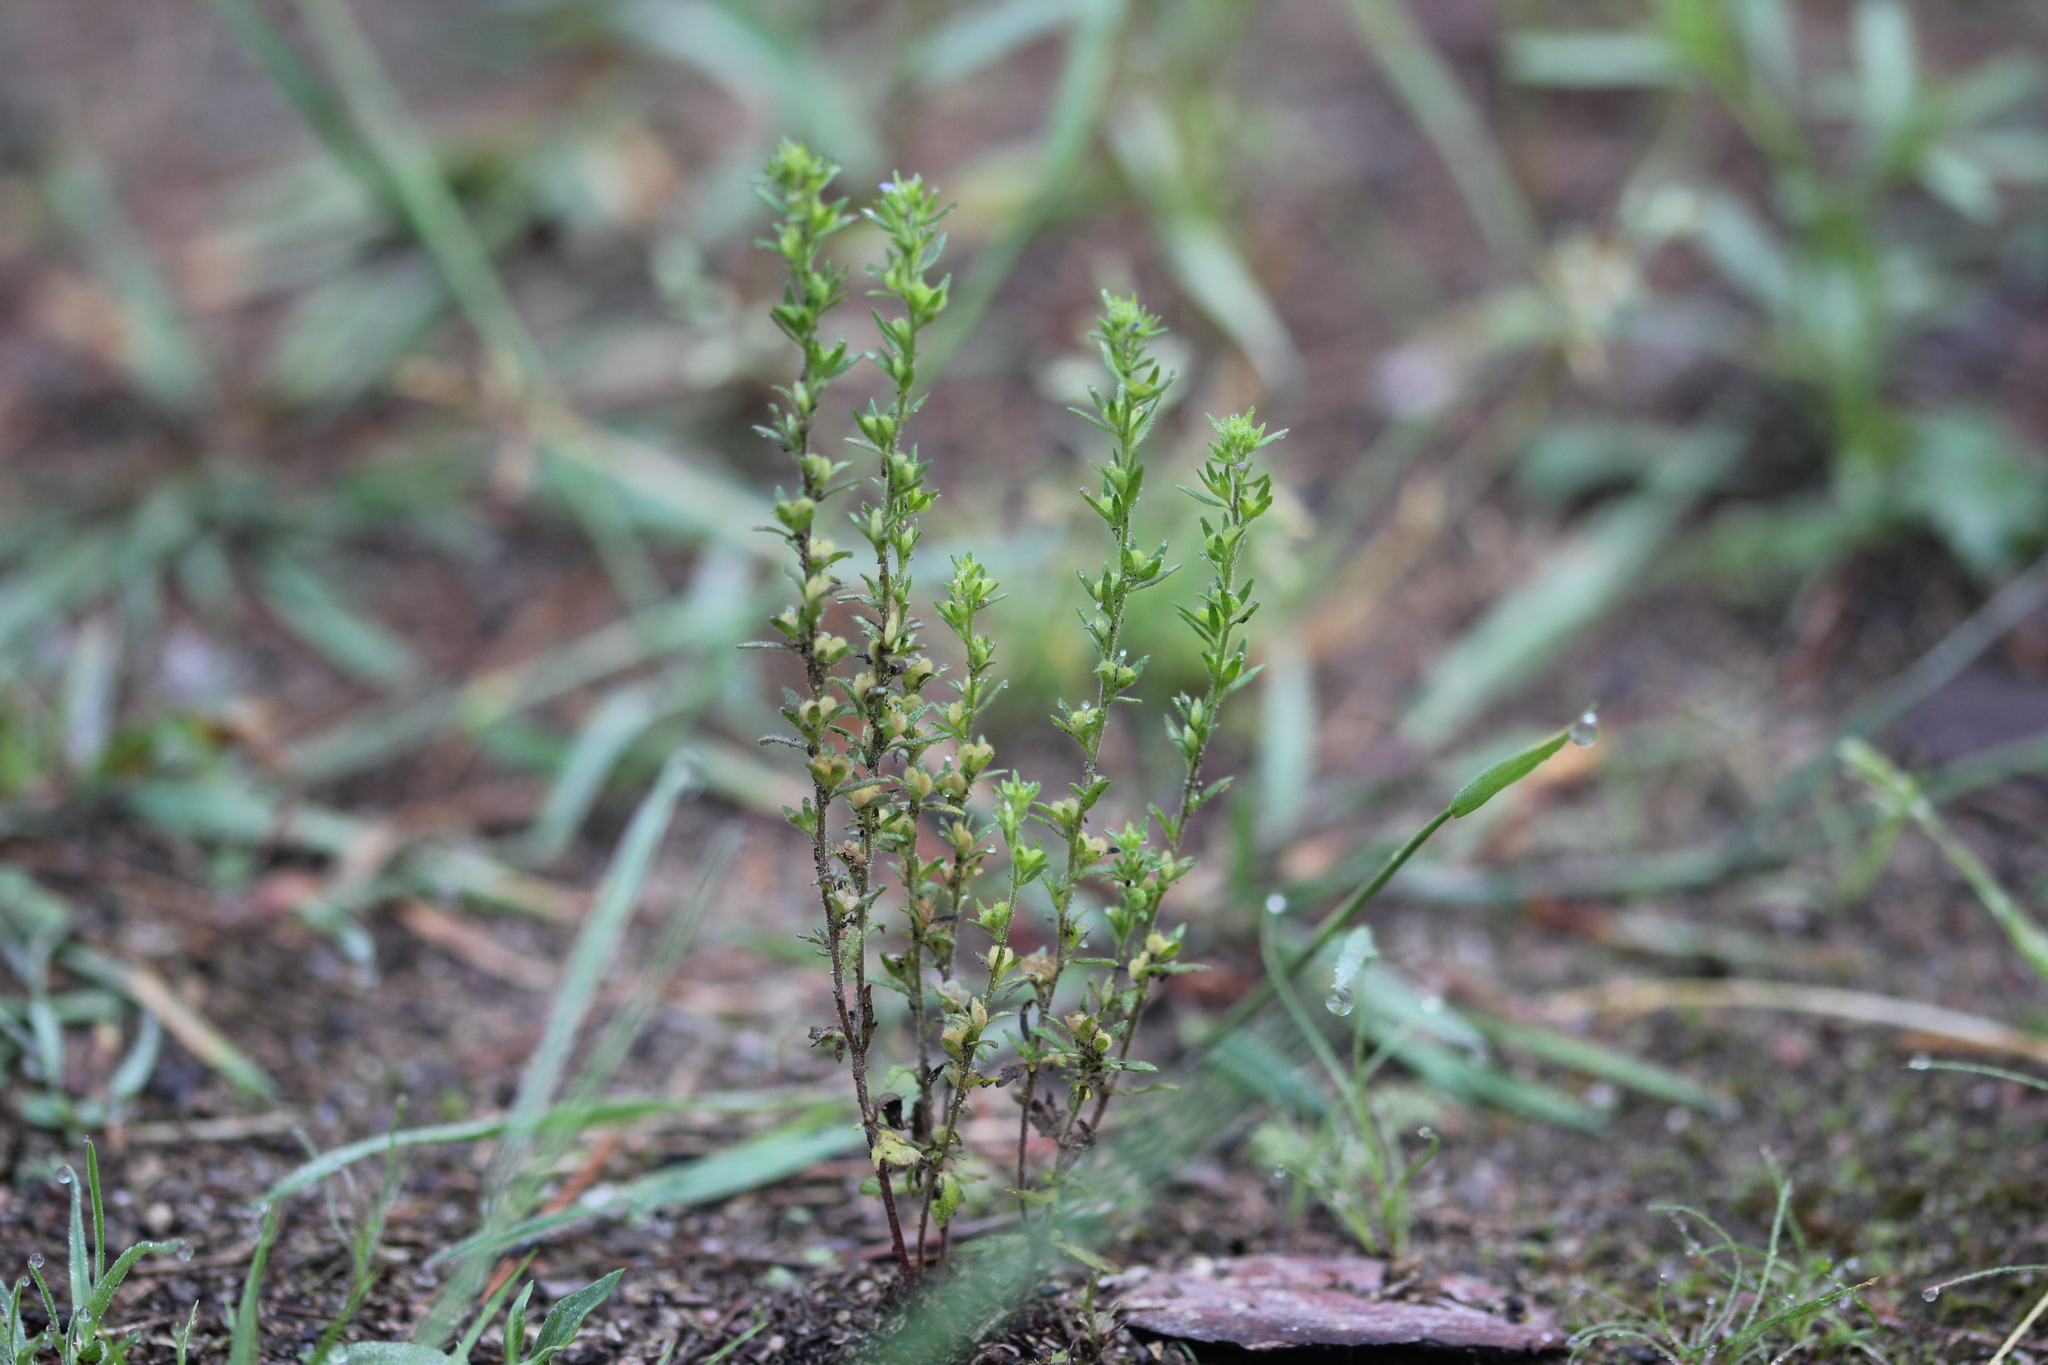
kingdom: Plantae
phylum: Tracheophyta
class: Magnoliopsida
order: Lamiales
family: Plantaginaceae
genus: Veronica
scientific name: Veronica verna
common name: Spring speedwell
